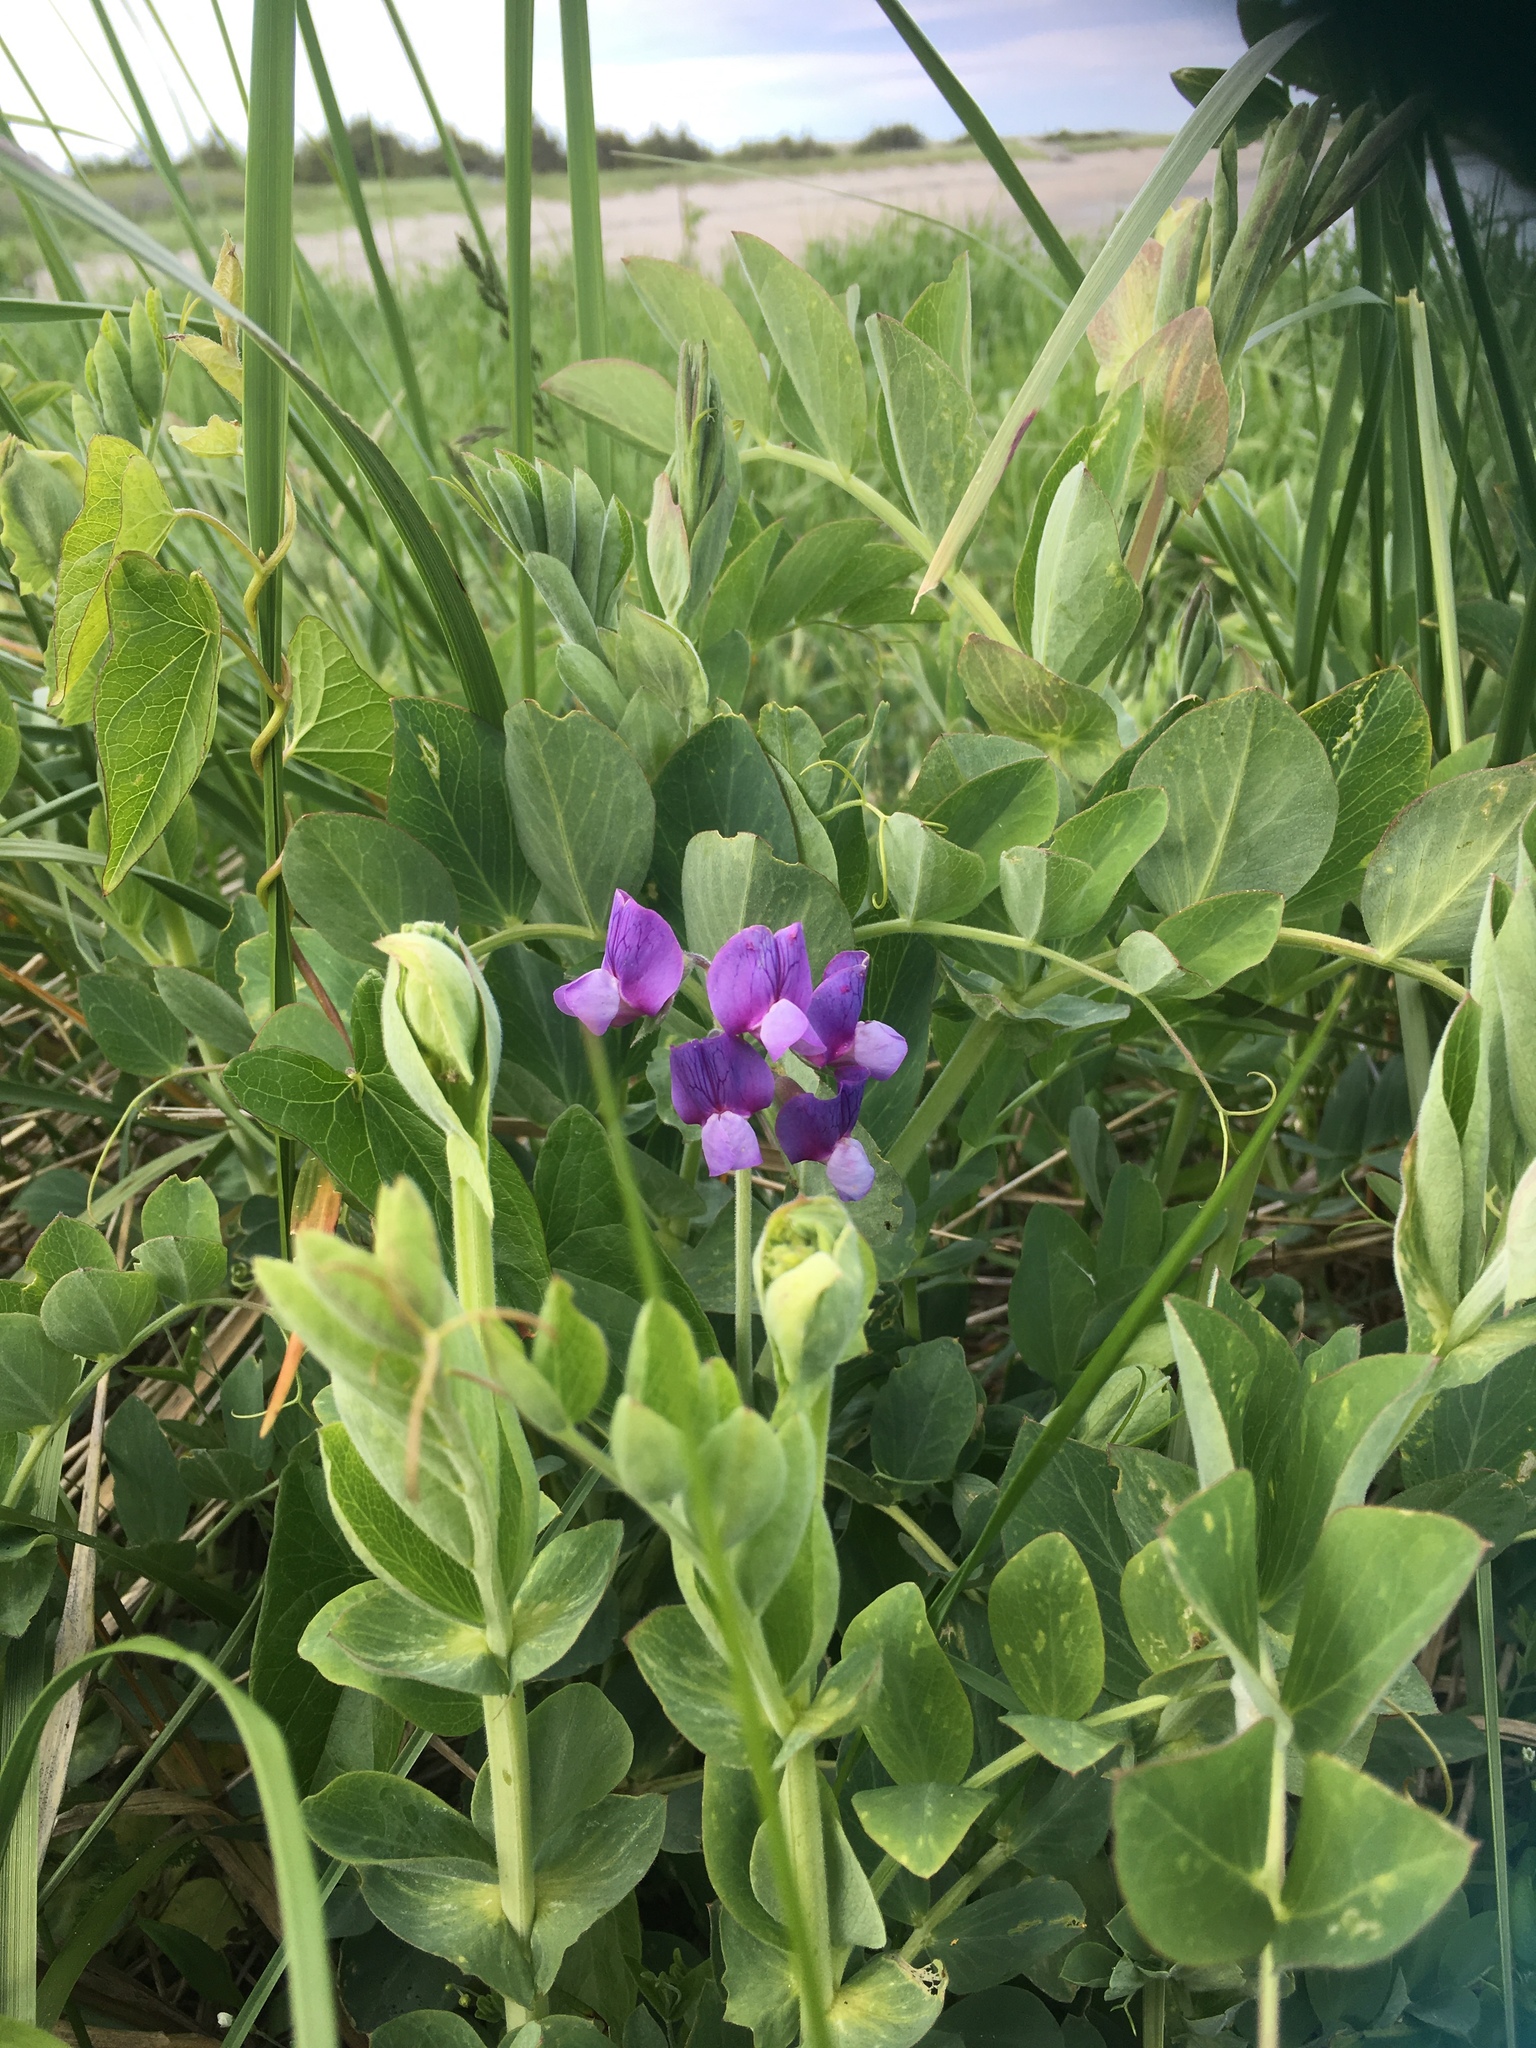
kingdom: Plantae
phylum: Tracheophyta
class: Magnoliopsida
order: Fabales
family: Fabaceae
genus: Lathyrus
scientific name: Lathyrus japonicus
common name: Sea pea
